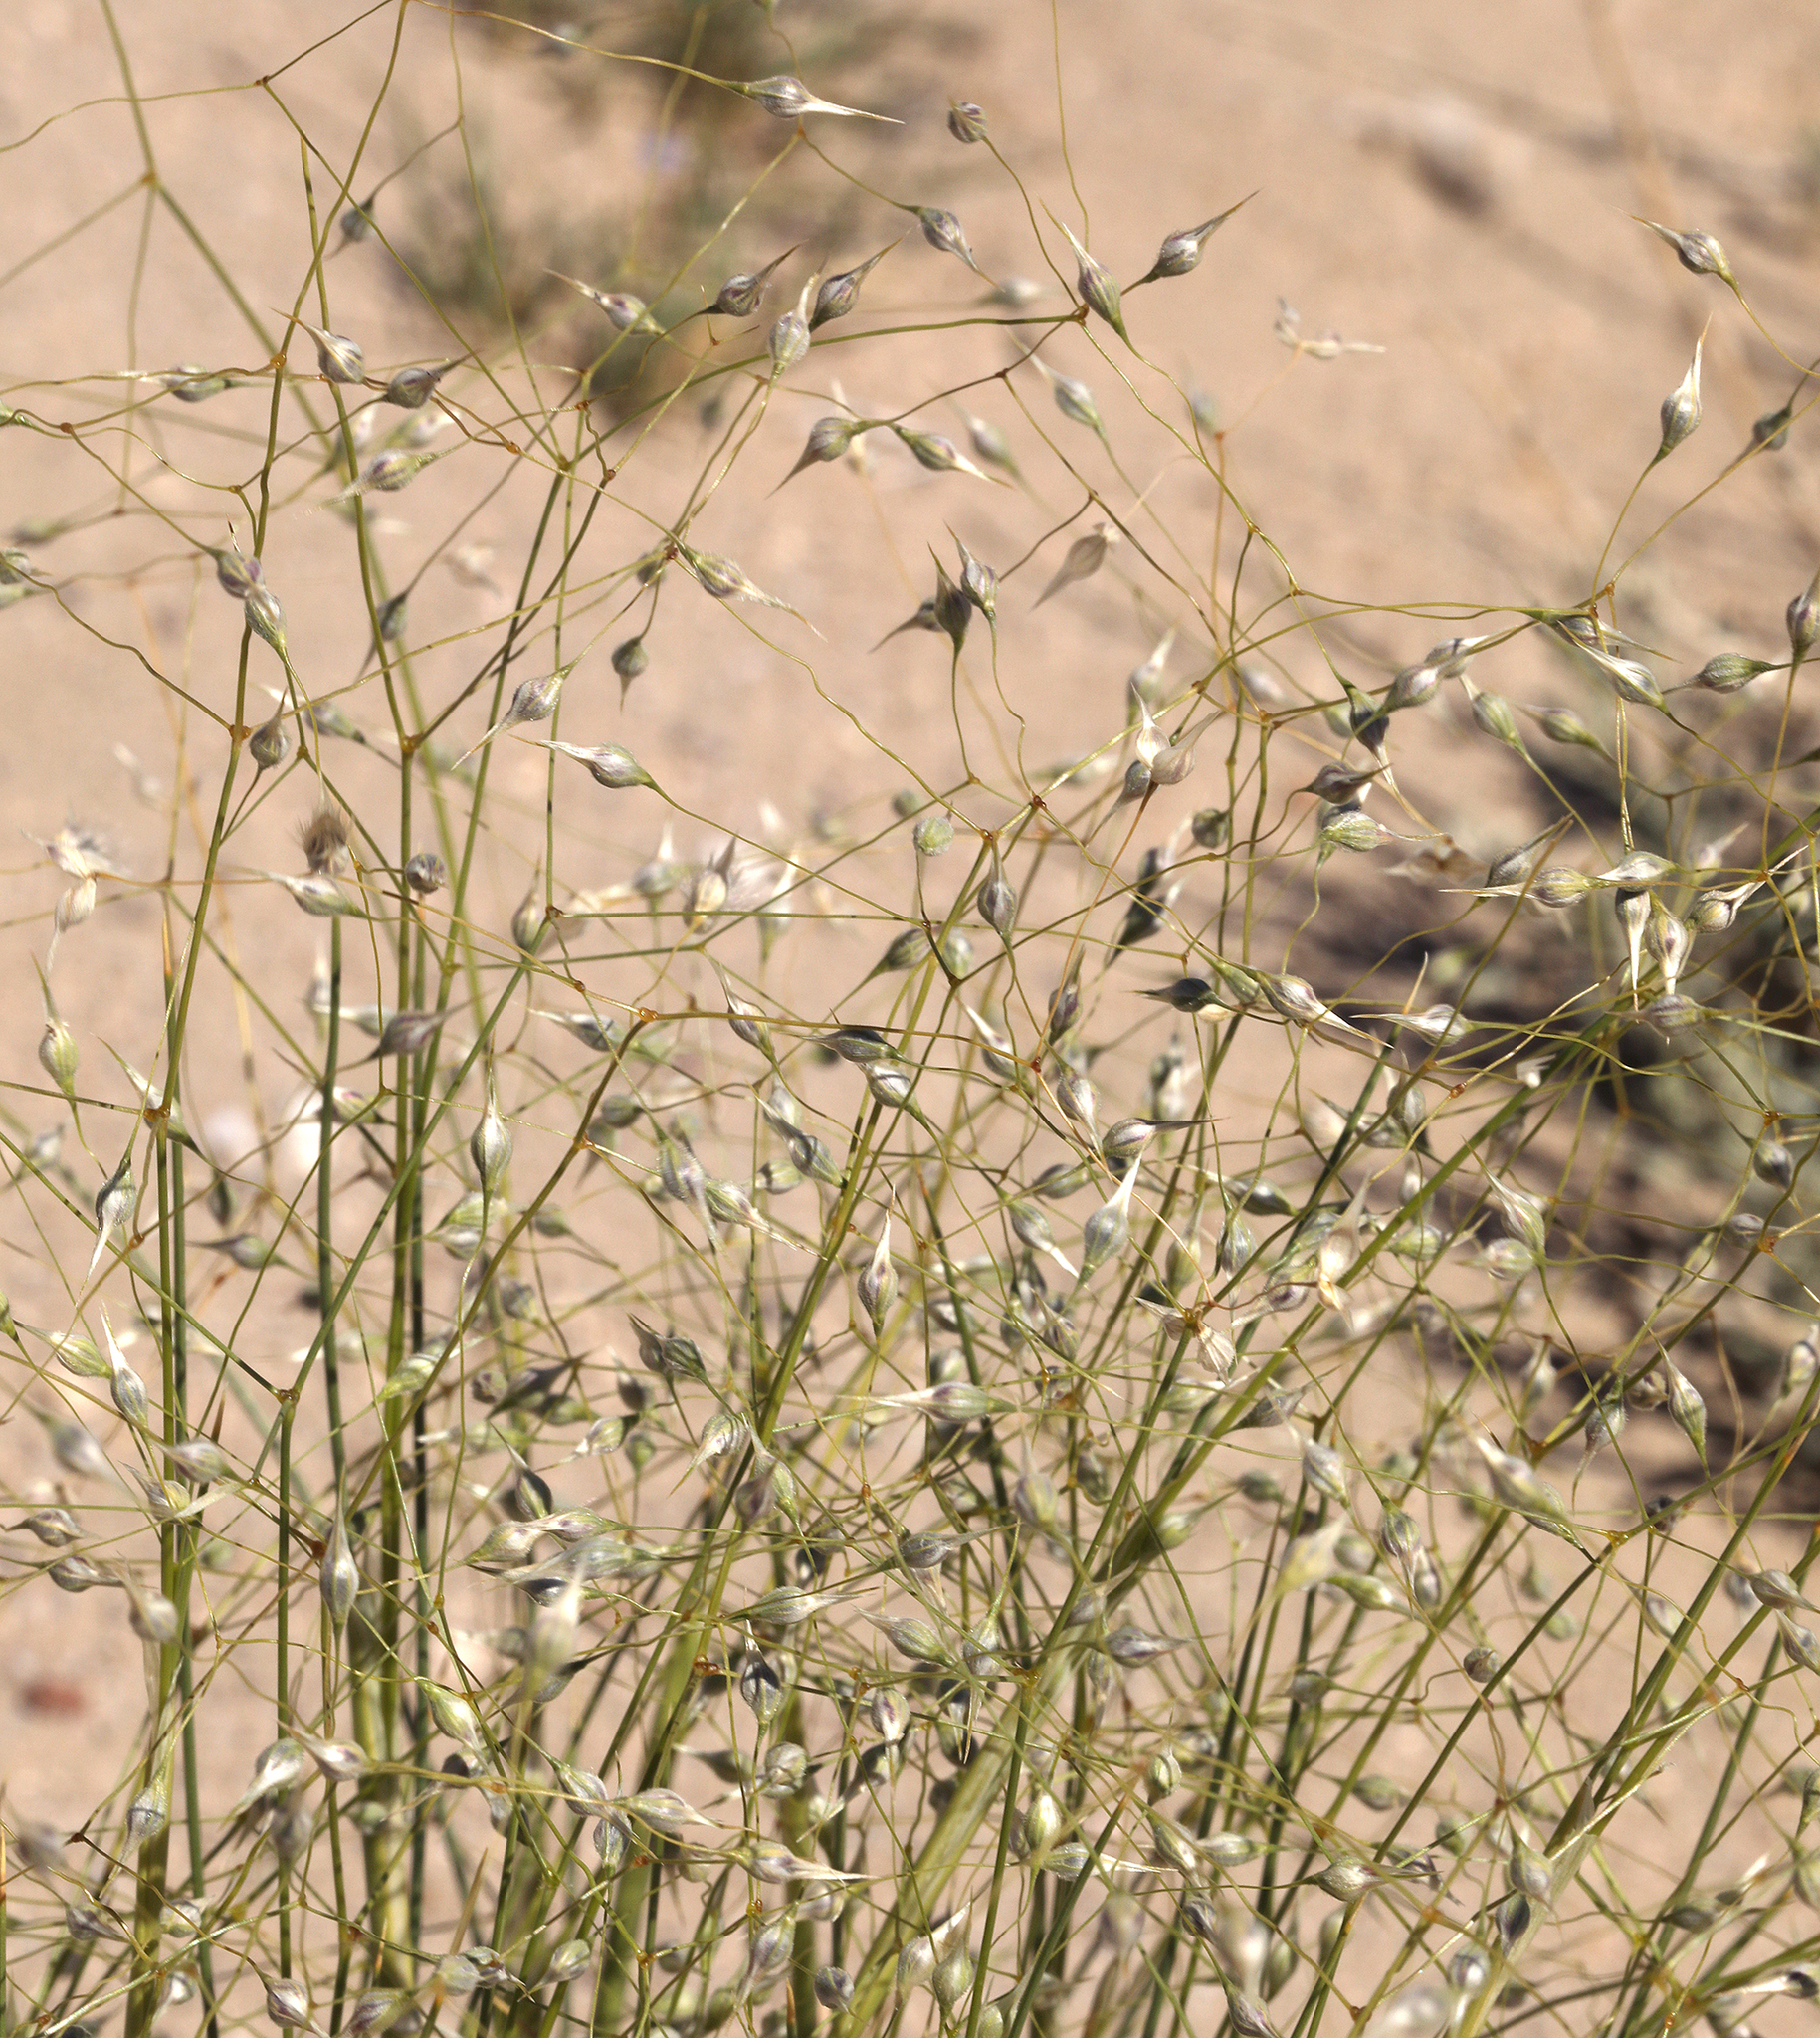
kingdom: Plantae
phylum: Tracheophyta
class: Liliopsida
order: Poales
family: Poaceae
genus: Eriocoma
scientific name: Eriocoma hymenoides
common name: Indian mountain ricegrass
